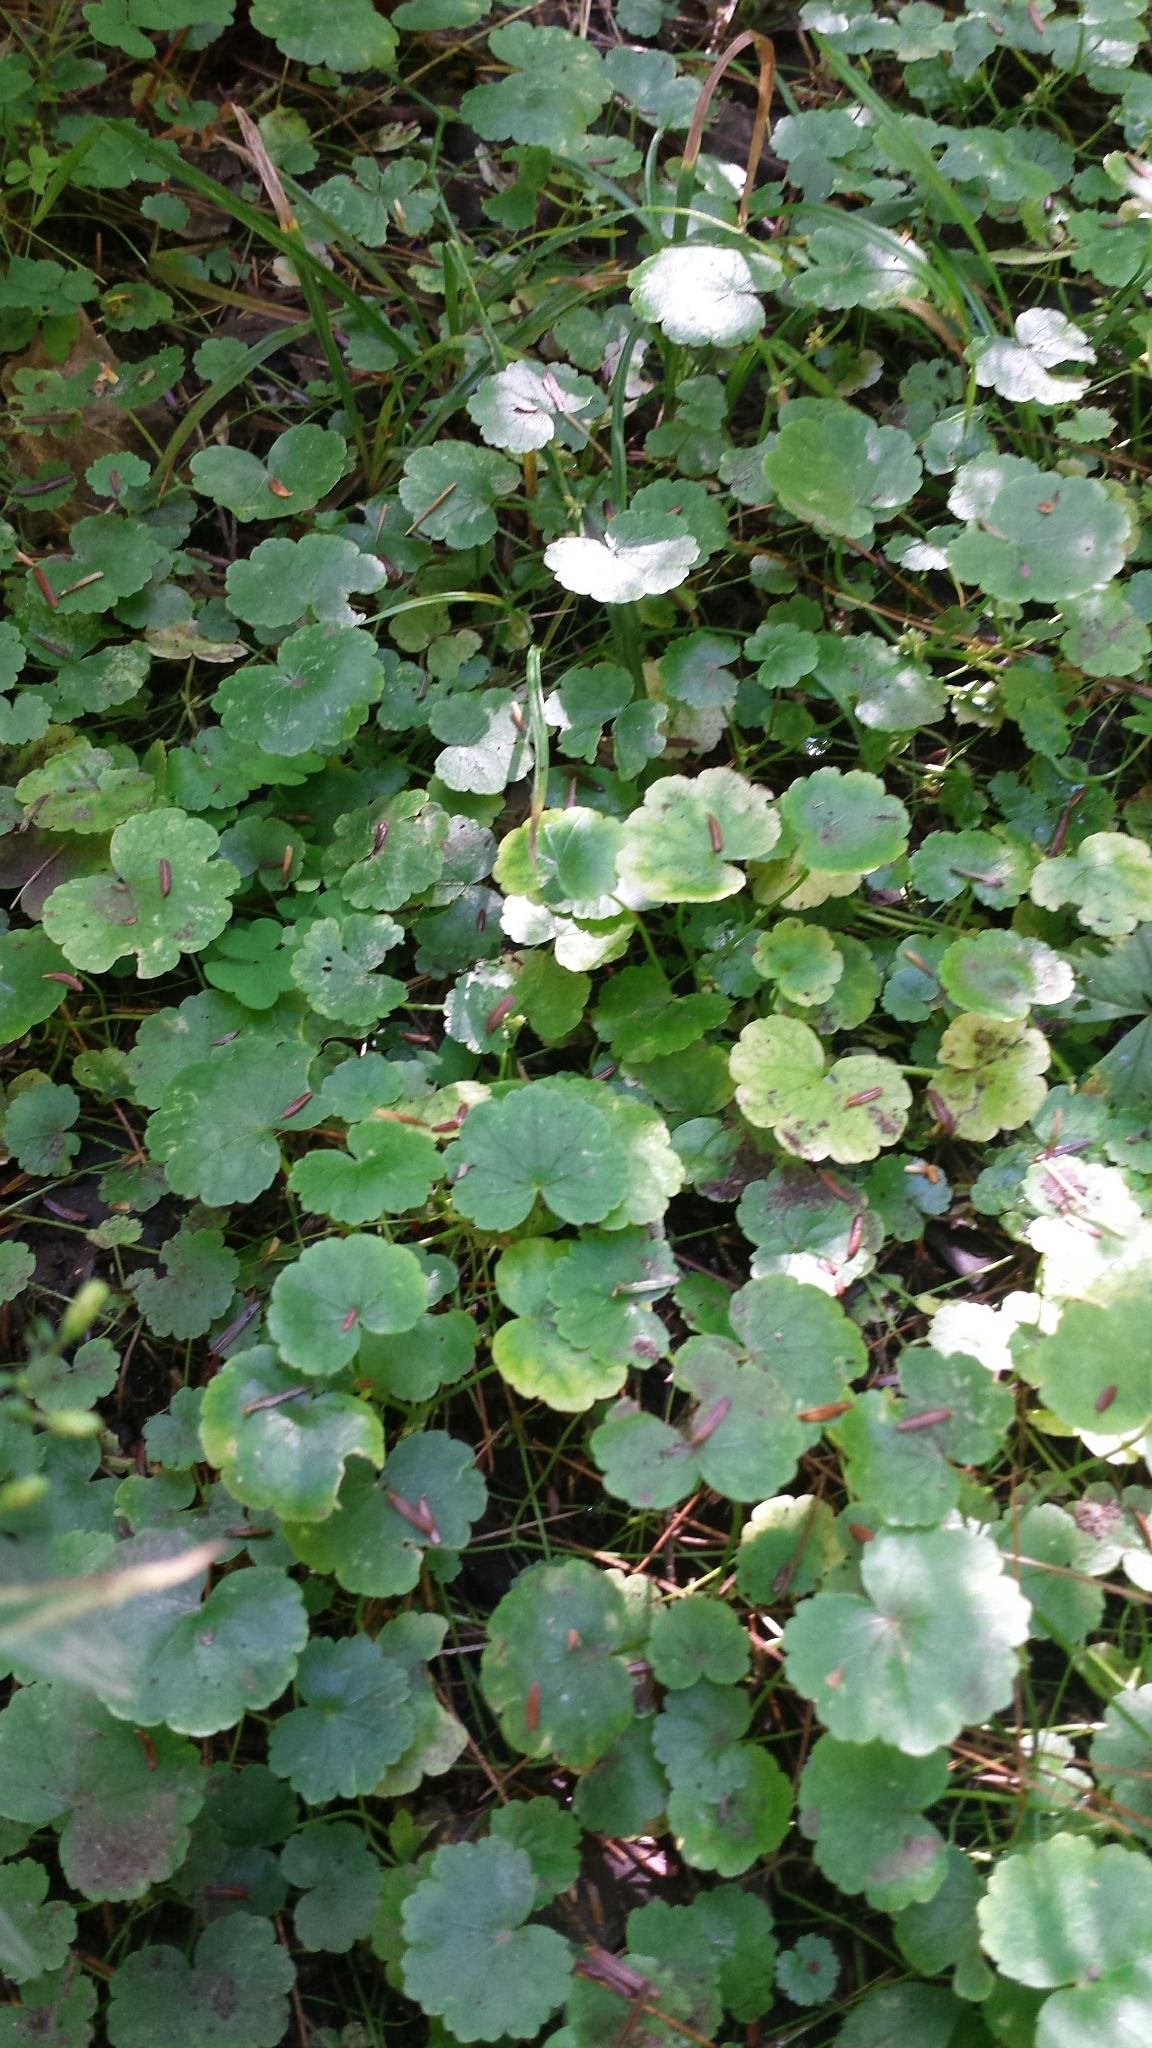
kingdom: Plantae
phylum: Tracheophyta
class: Magnoliopsida
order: Apiales
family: Araliaceae
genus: Hydrocotyle
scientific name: Hydrocotyle americana
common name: American water-pennywort
